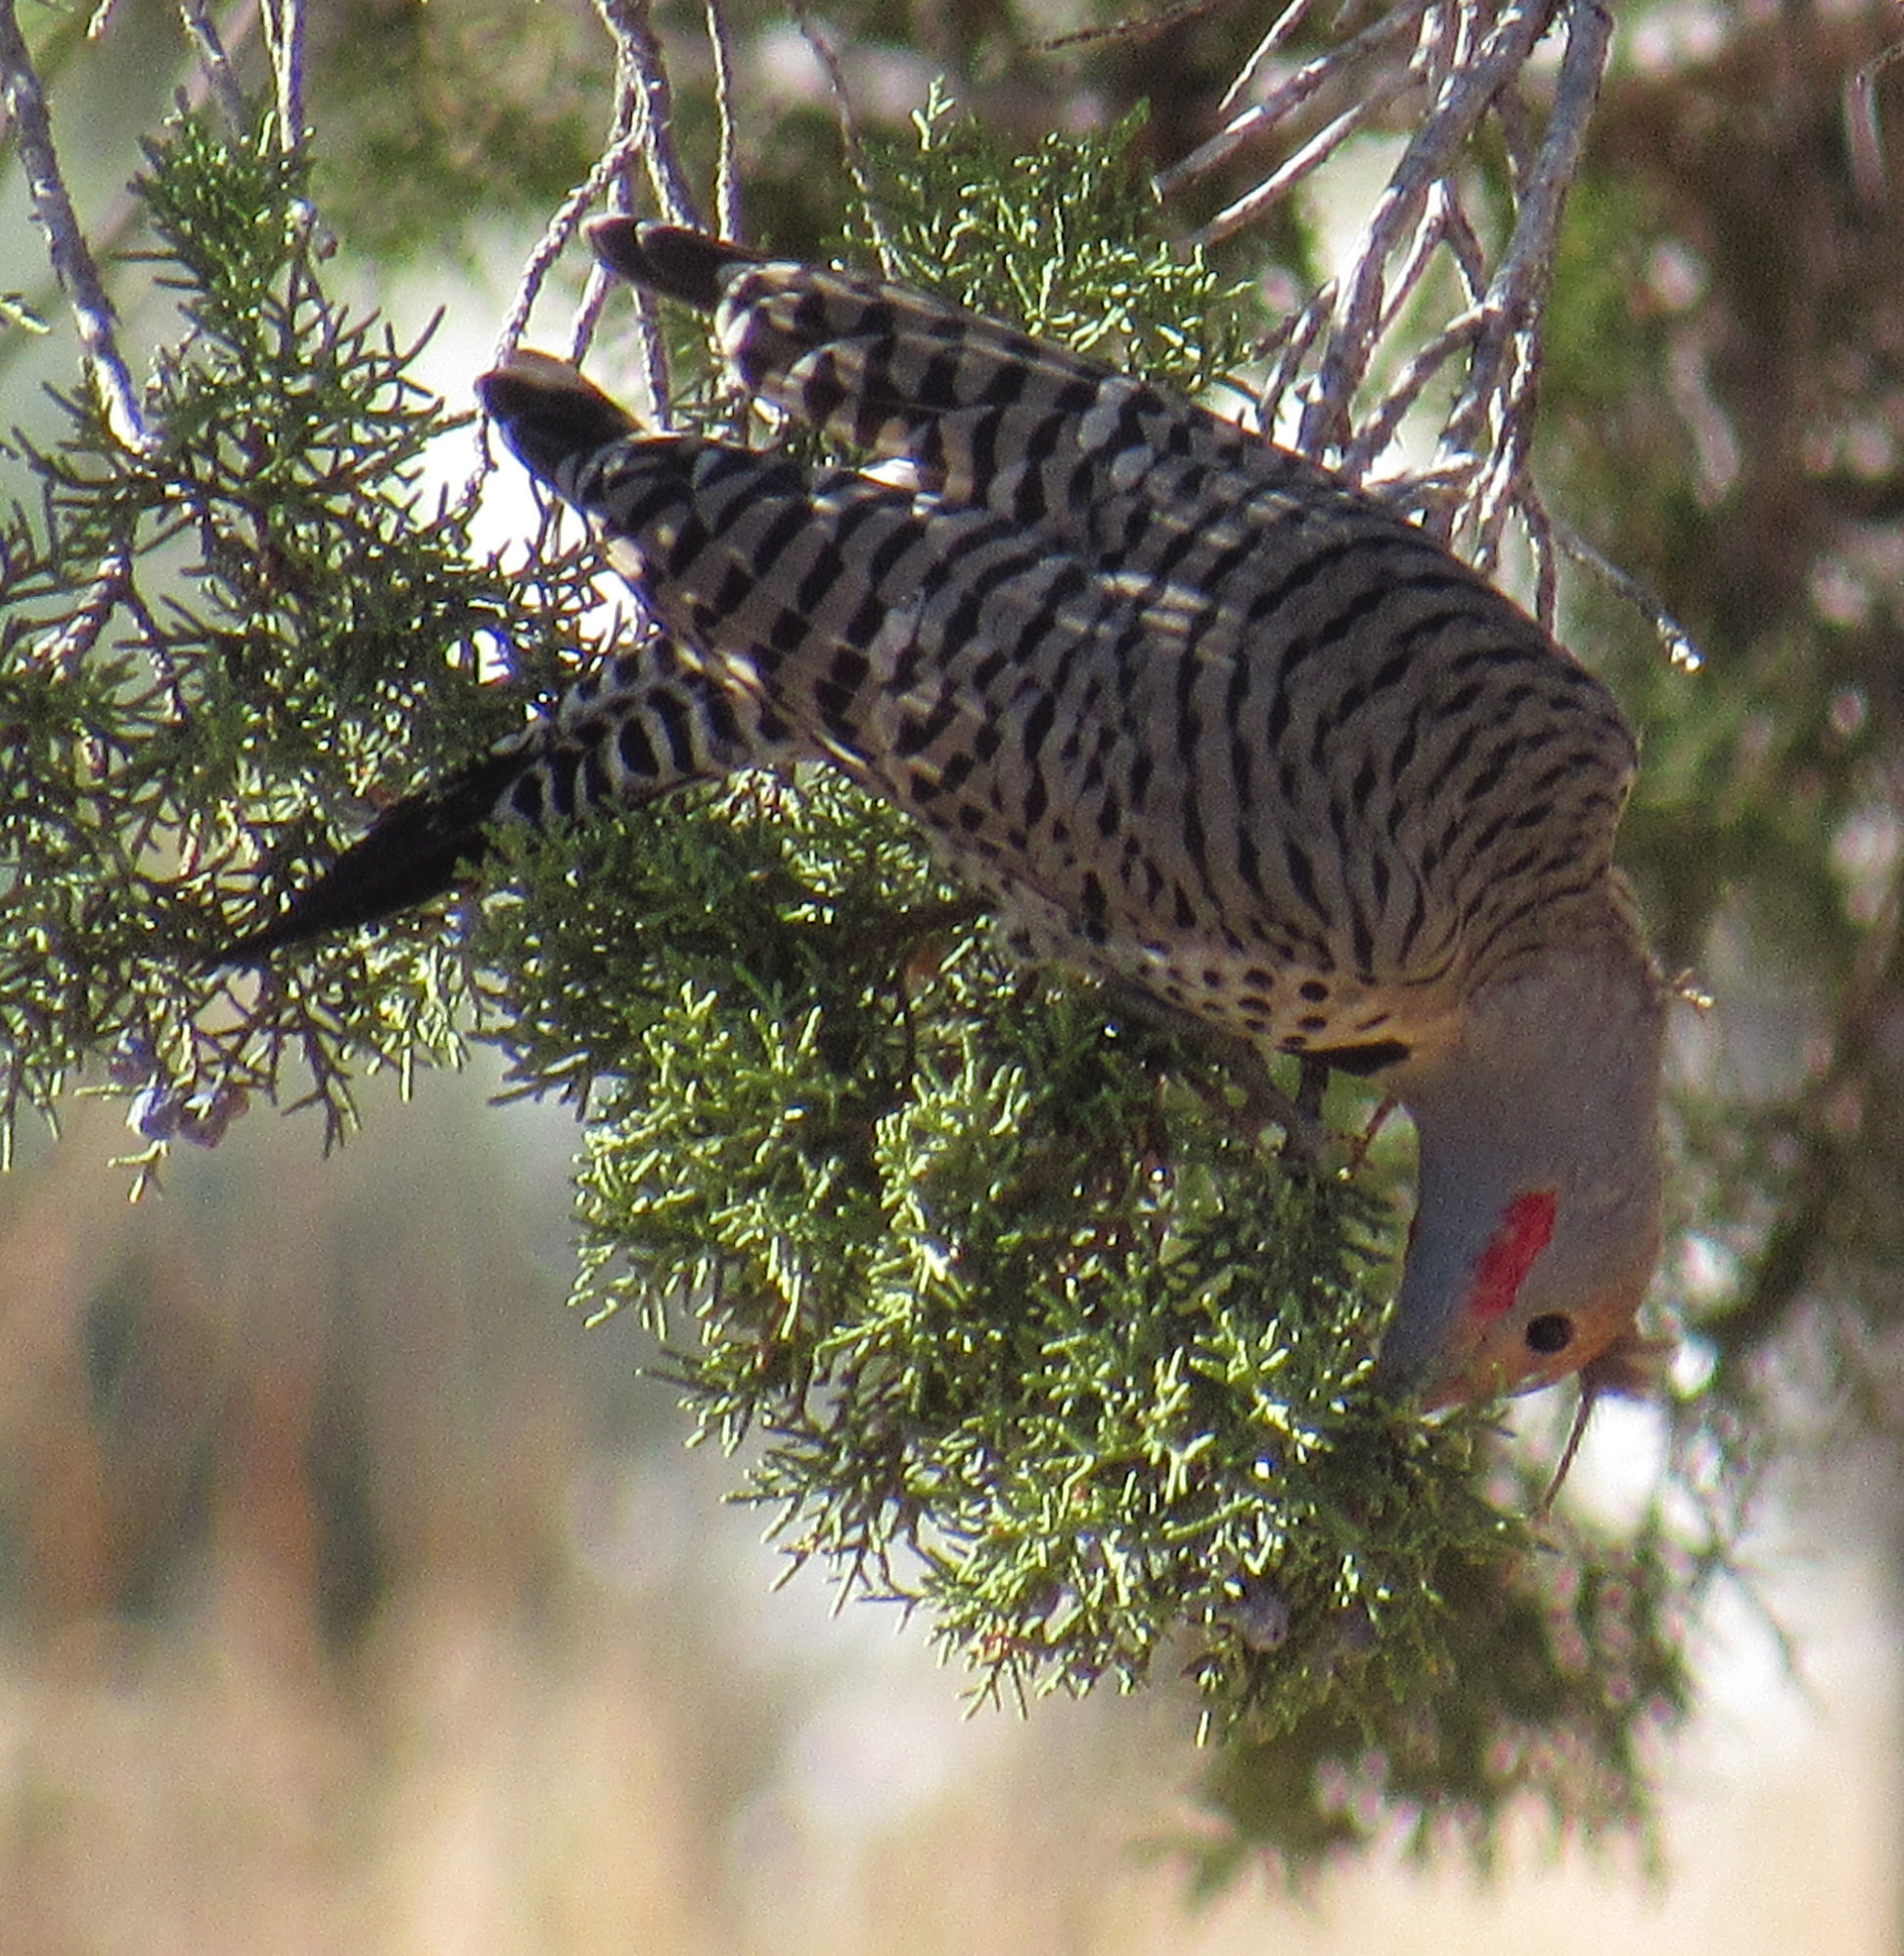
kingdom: Animalia
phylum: Chordata
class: Aves
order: Piciformes
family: Picidae
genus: Colaptes
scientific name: Colaptes auratus
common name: Northern flicker
